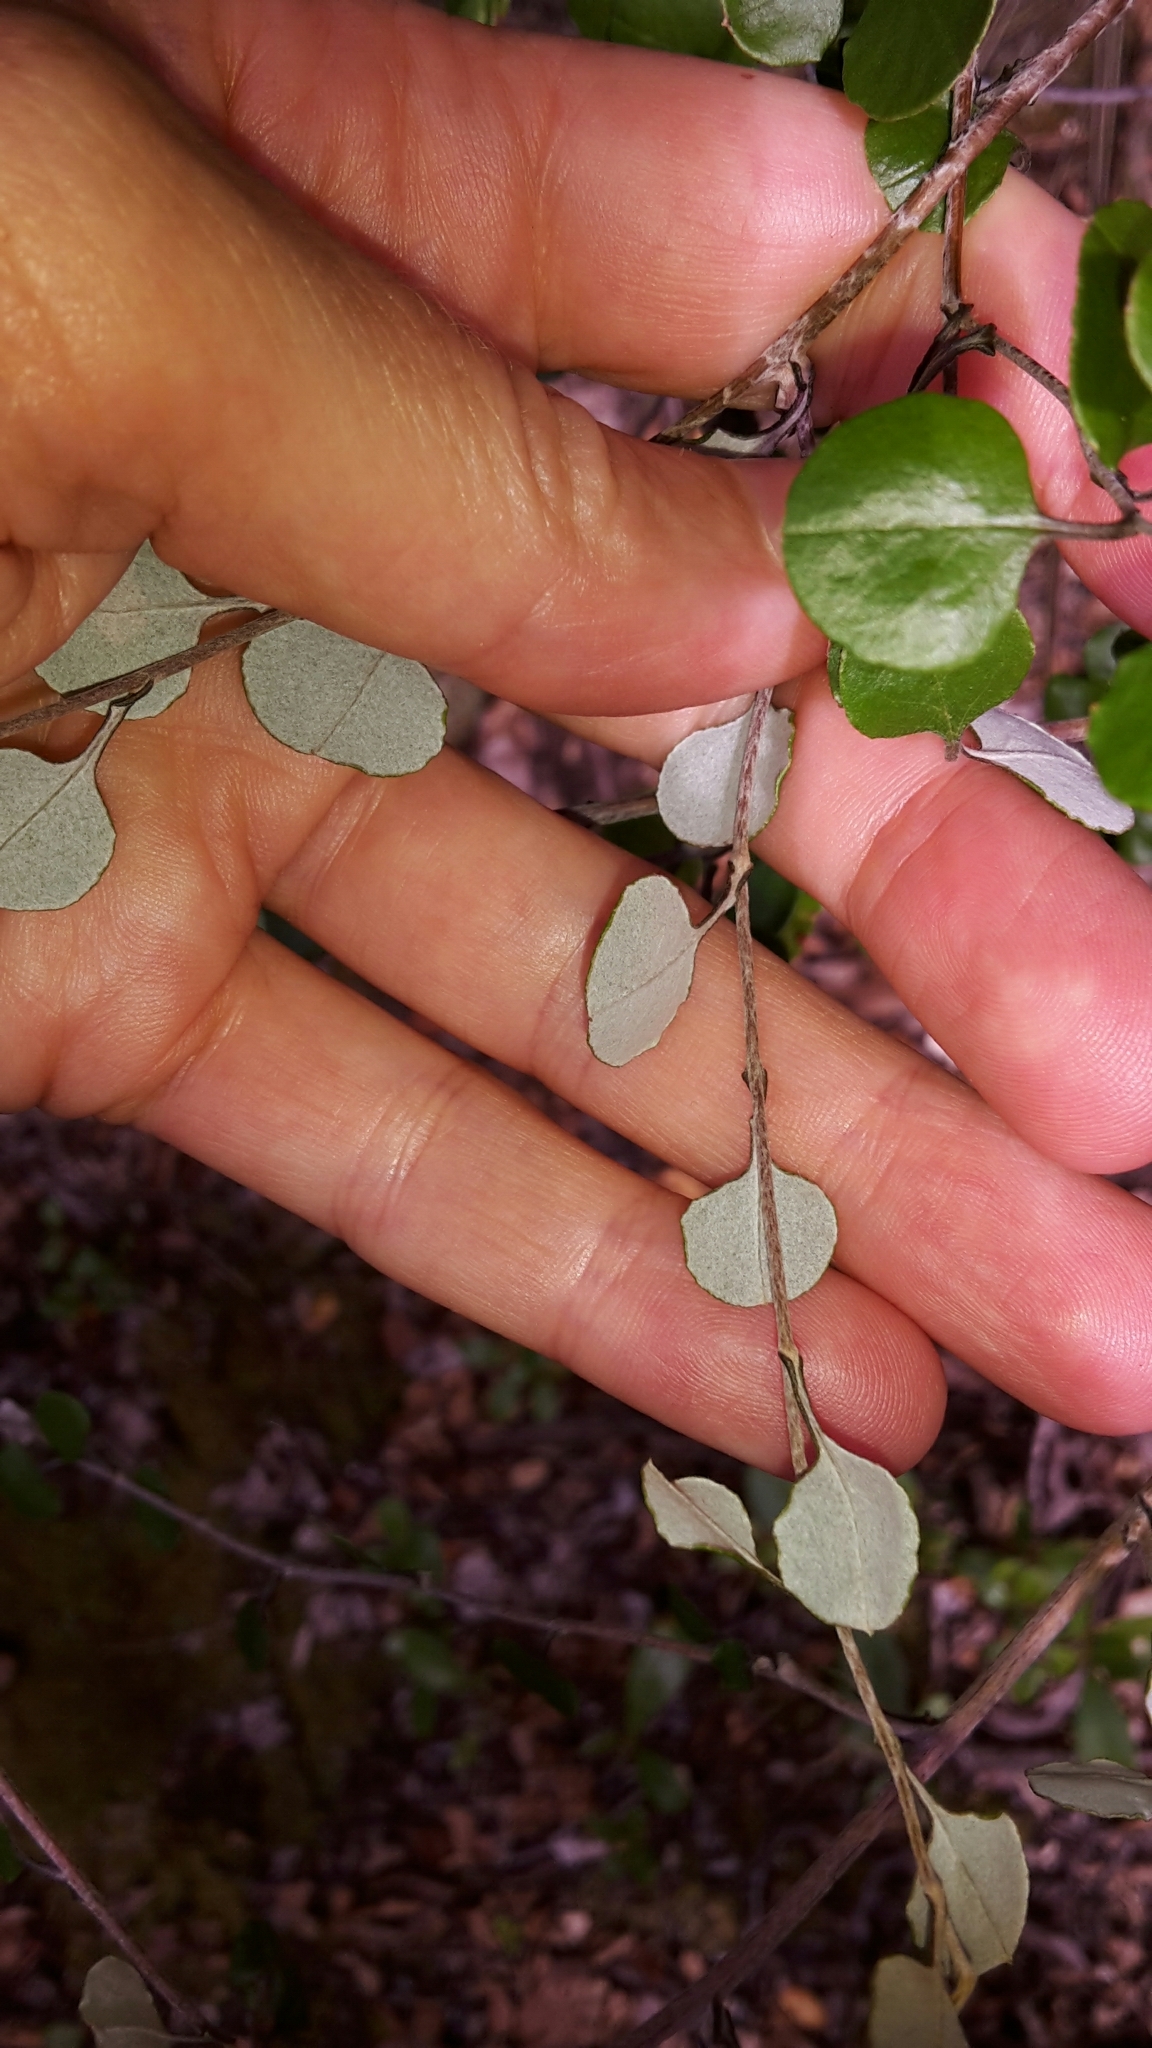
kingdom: Plantae
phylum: Tracheophyta
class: Magnoliopsida
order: Asterales
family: Asteraceae
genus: Ozothamnus
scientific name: Ozothamnus glomeratus
